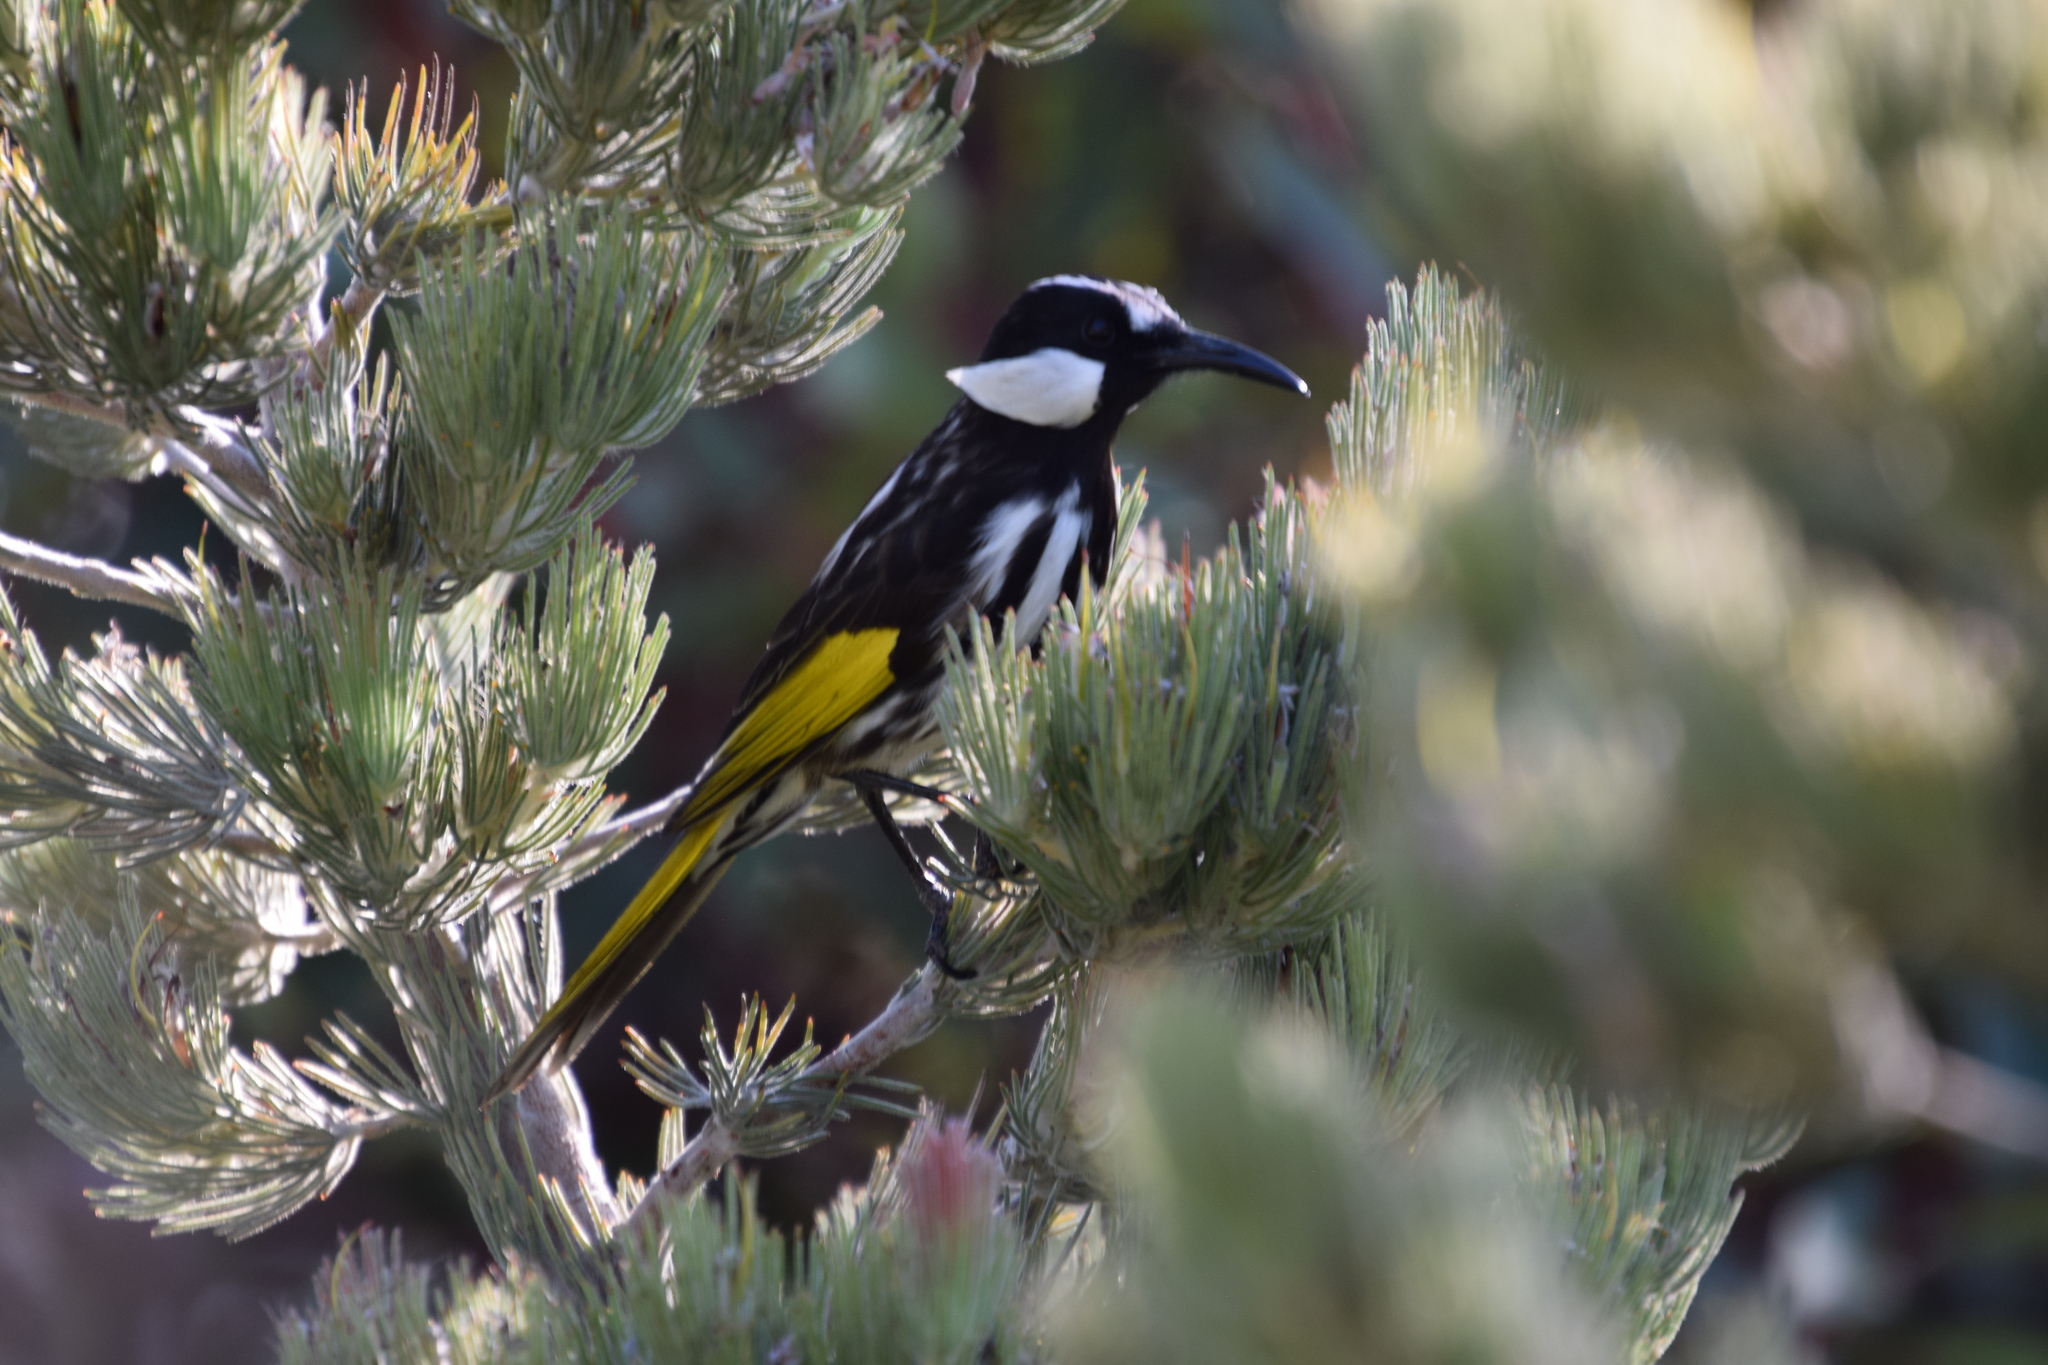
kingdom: Plantae
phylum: Tracheophyta
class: Magnoliopsida
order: Proteales
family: Proteaceae
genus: Adenanthos
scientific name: Adenanthos cygnorum
